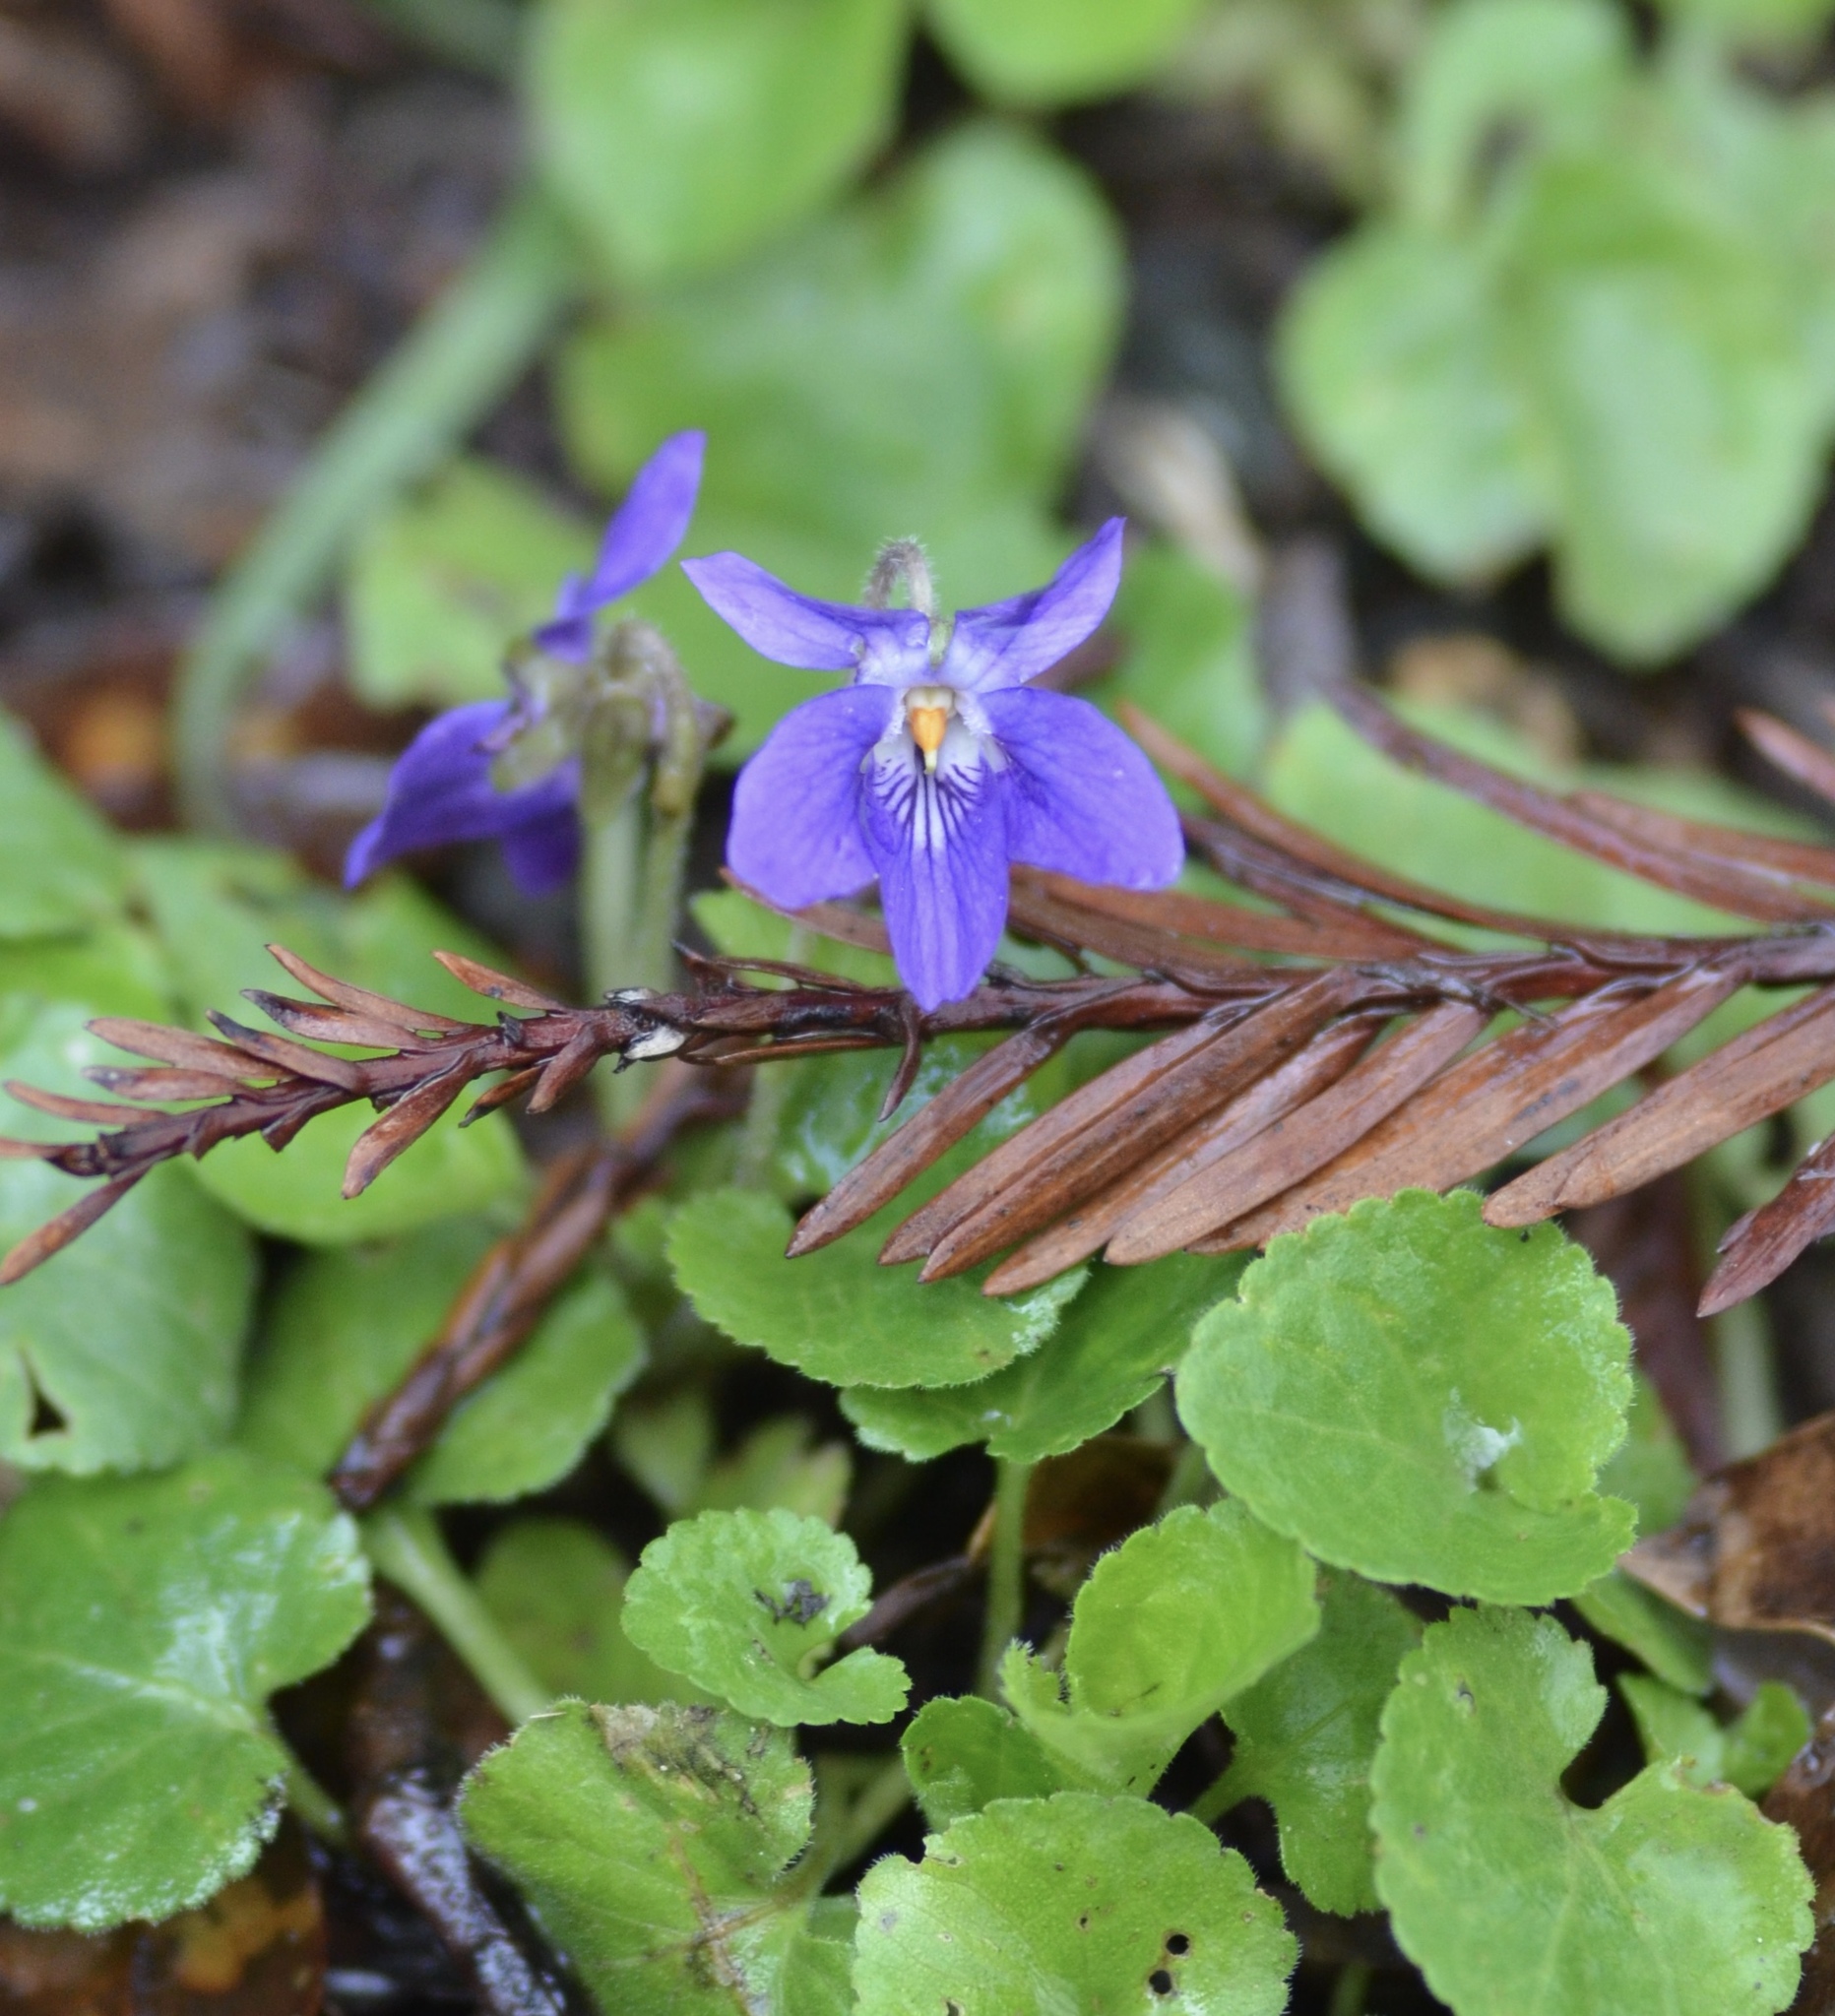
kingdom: Plantae
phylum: Tracheophyta
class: Magnoliopsida
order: Malpighiales
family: Violaceae
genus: Viola
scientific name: Viola odorata
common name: Sweet violet
